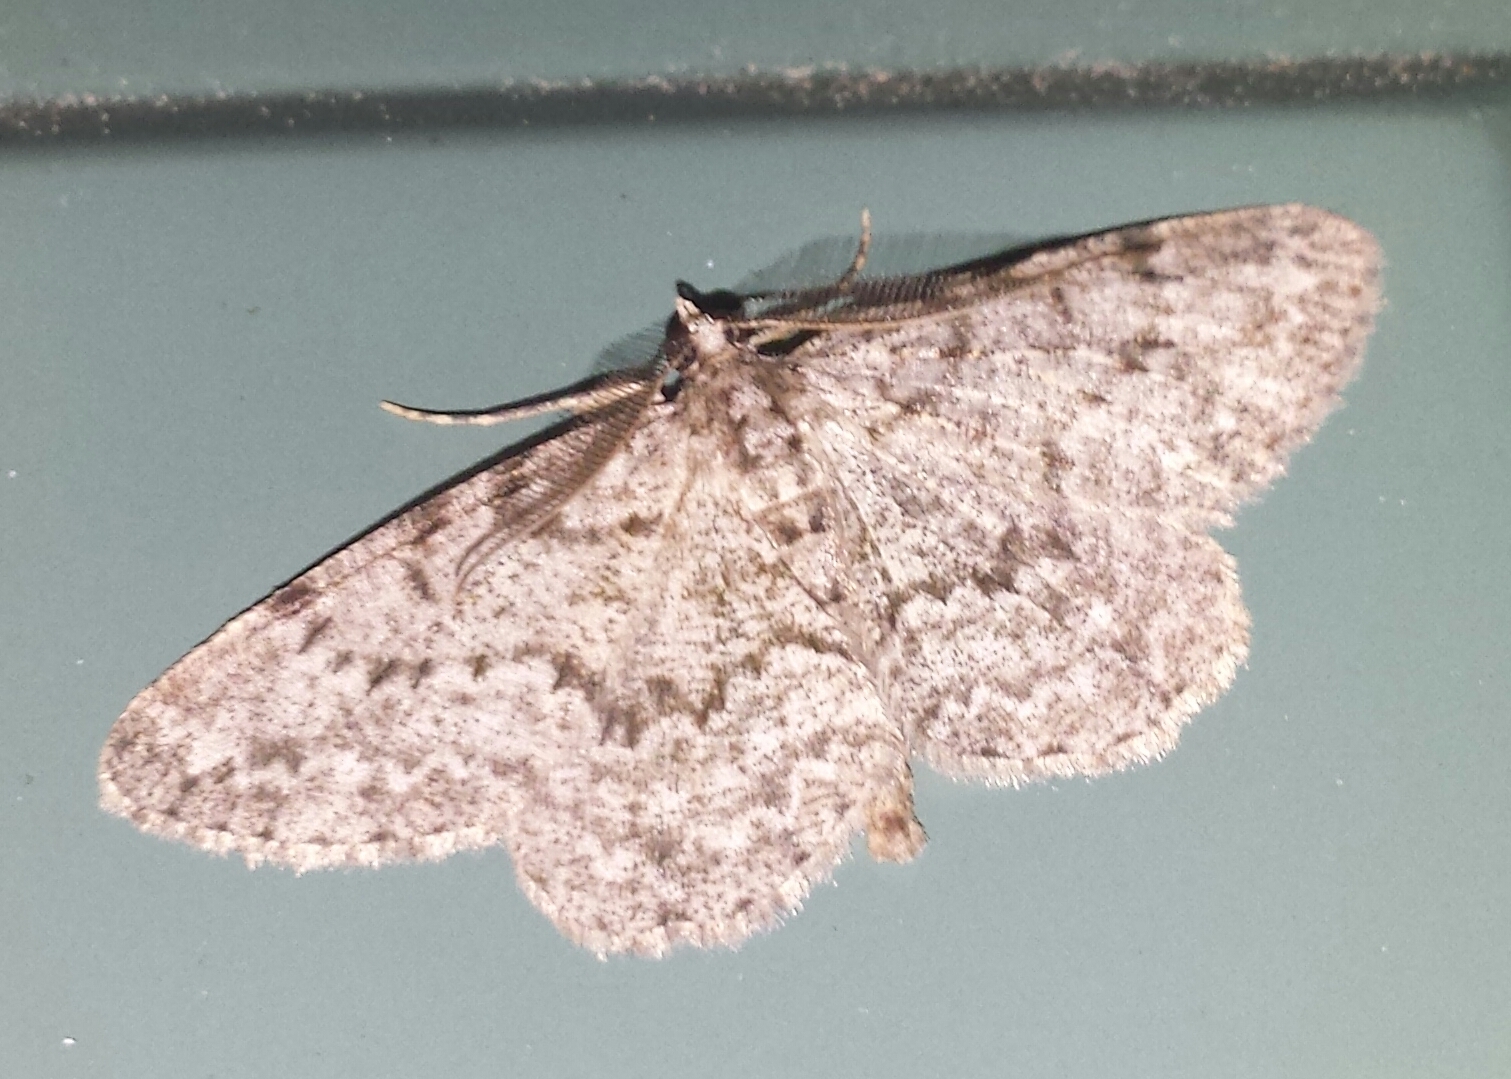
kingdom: Animalia
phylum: Arthropoda
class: Insecta
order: Lepidoptera
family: Geometridae
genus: Ectropis
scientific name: Ectropis crepuscularia
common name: Engrailed
